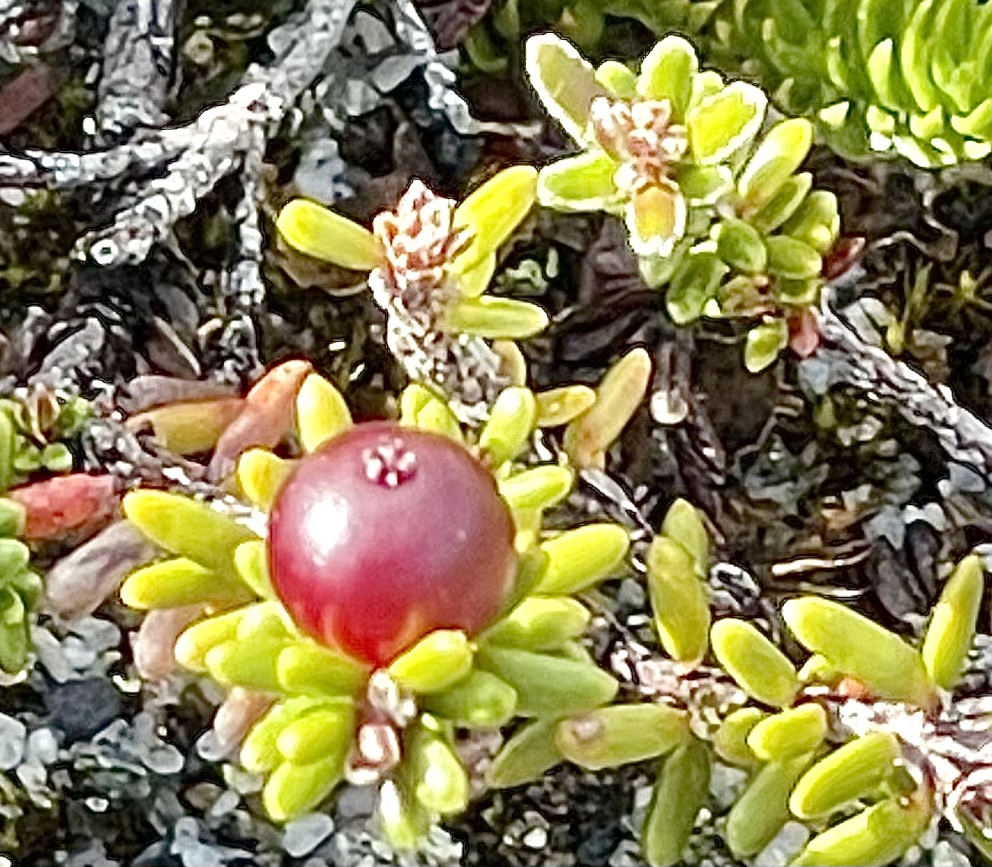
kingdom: Plantae
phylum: Tracheophyta
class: Magnoliopsida
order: Ericales
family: Ericaceae
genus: Empetrum
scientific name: Empetrum rubrum
